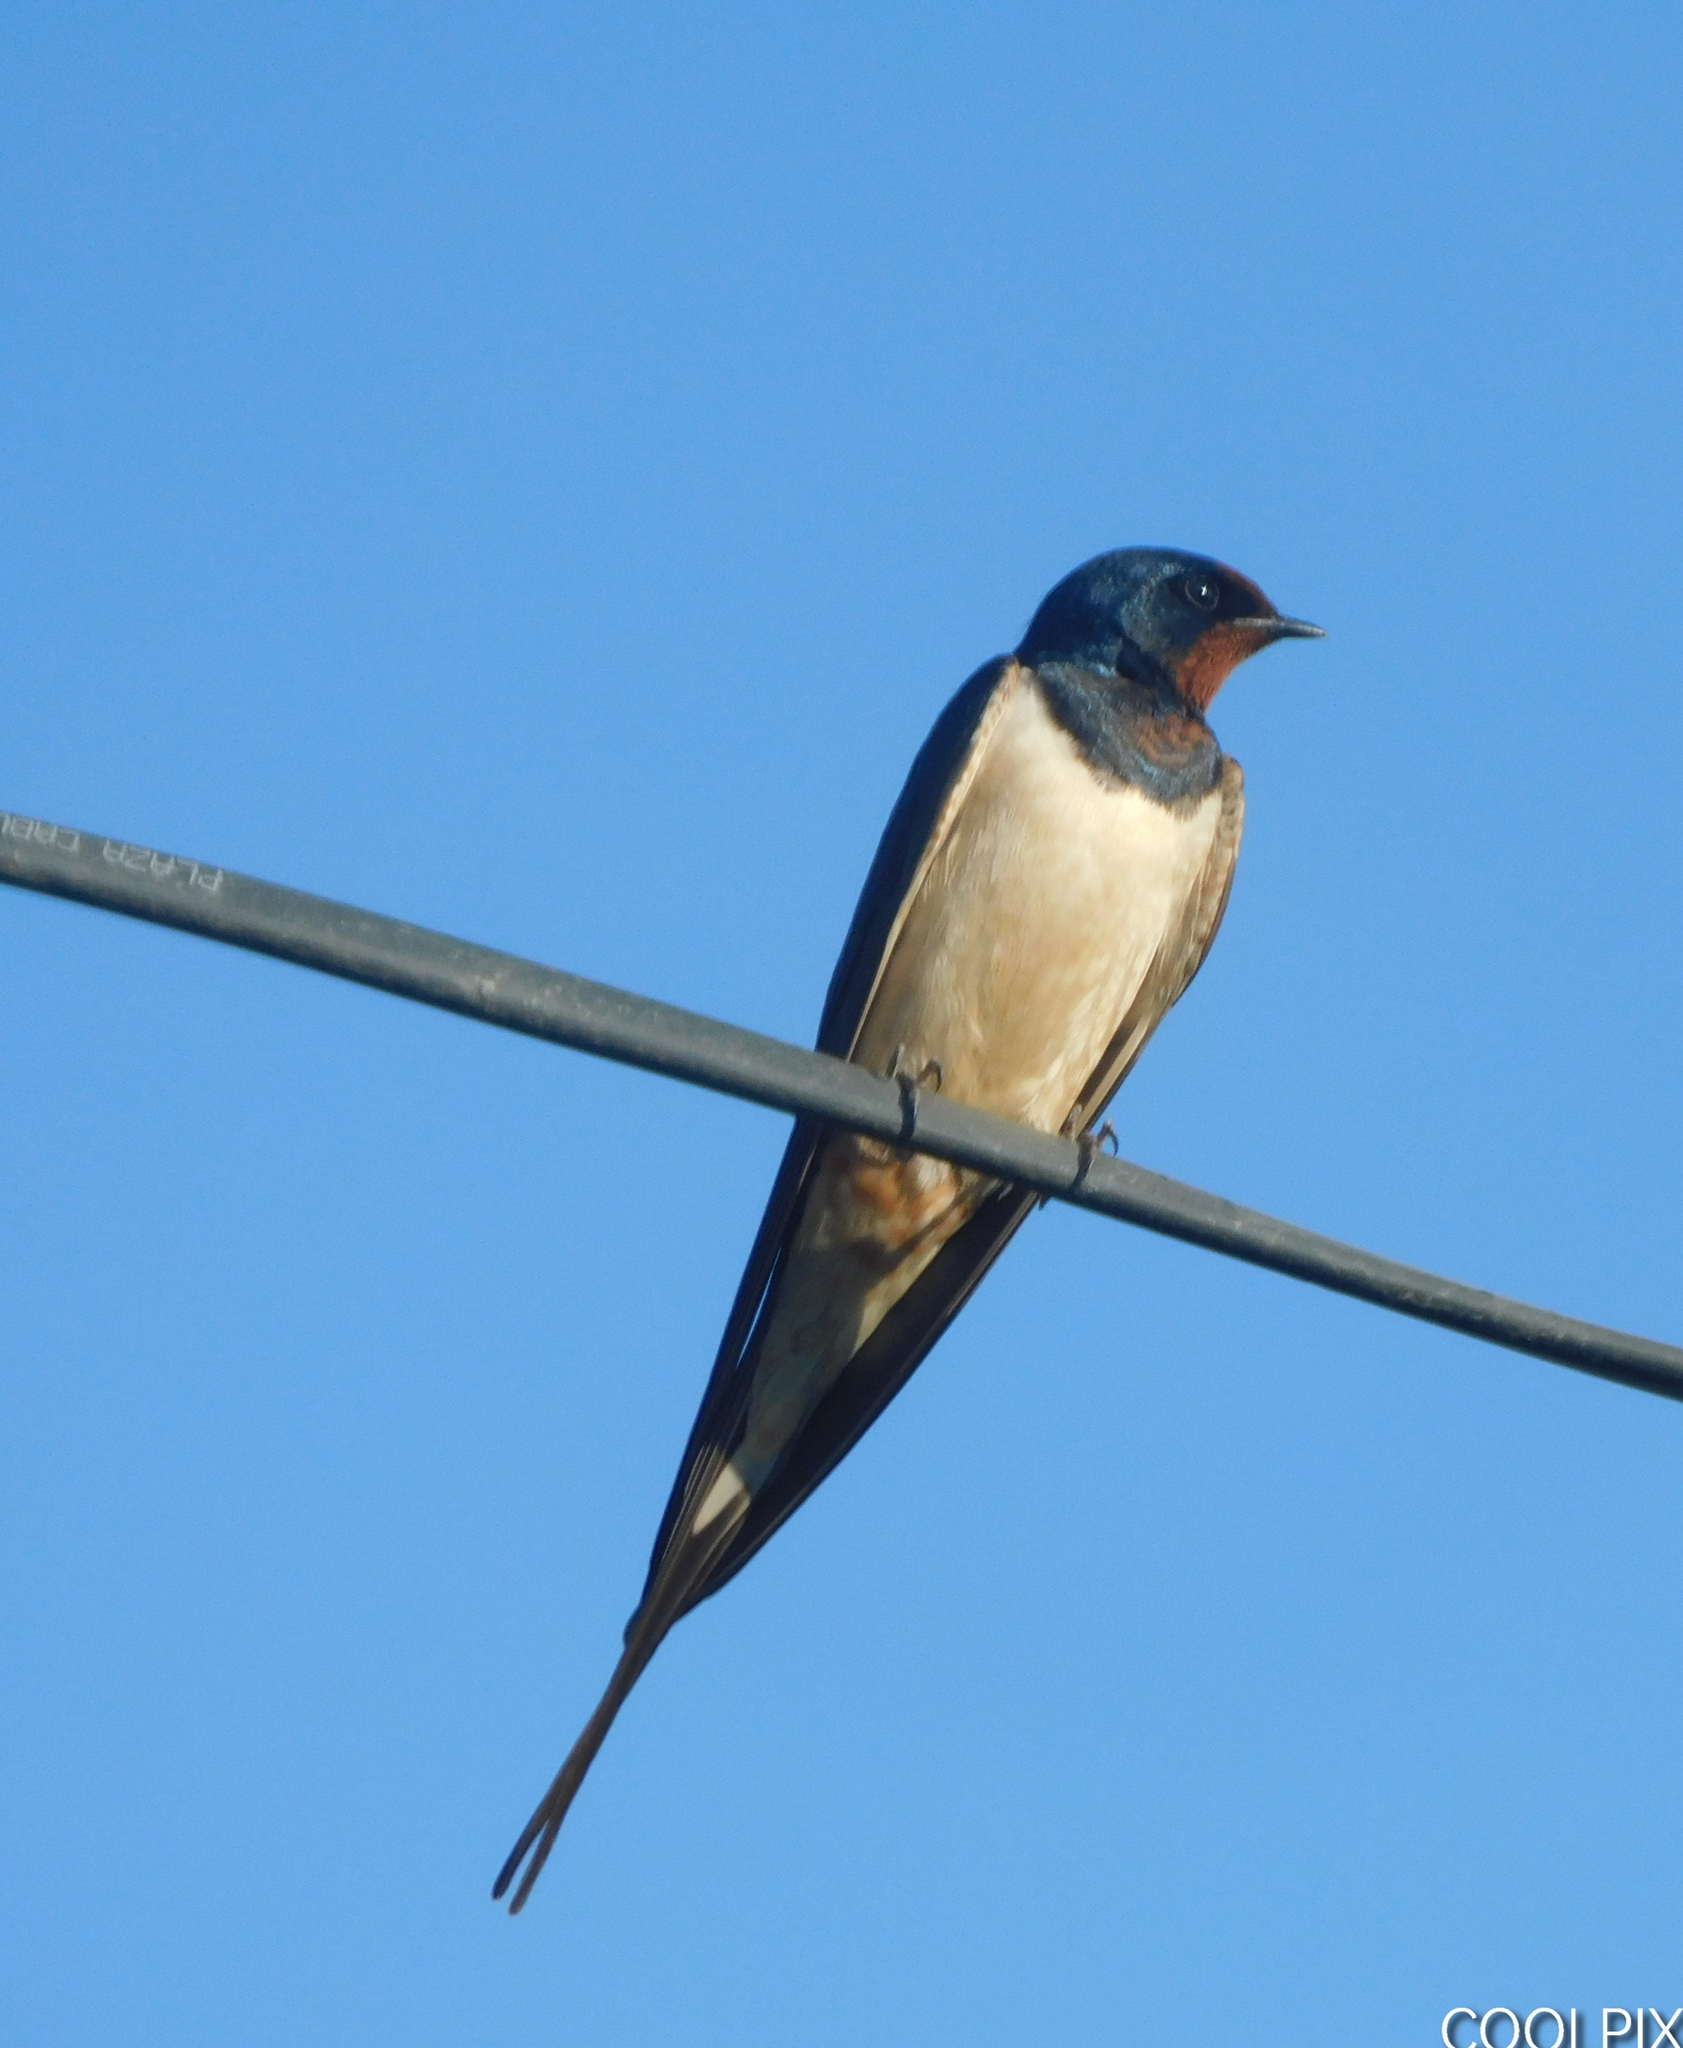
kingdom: Animalia
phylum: Chordata
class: Aves
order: Passeriformes
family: Hirundinidae
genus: Hirundo
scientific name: Hirundo rustica
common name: Barn swallow
